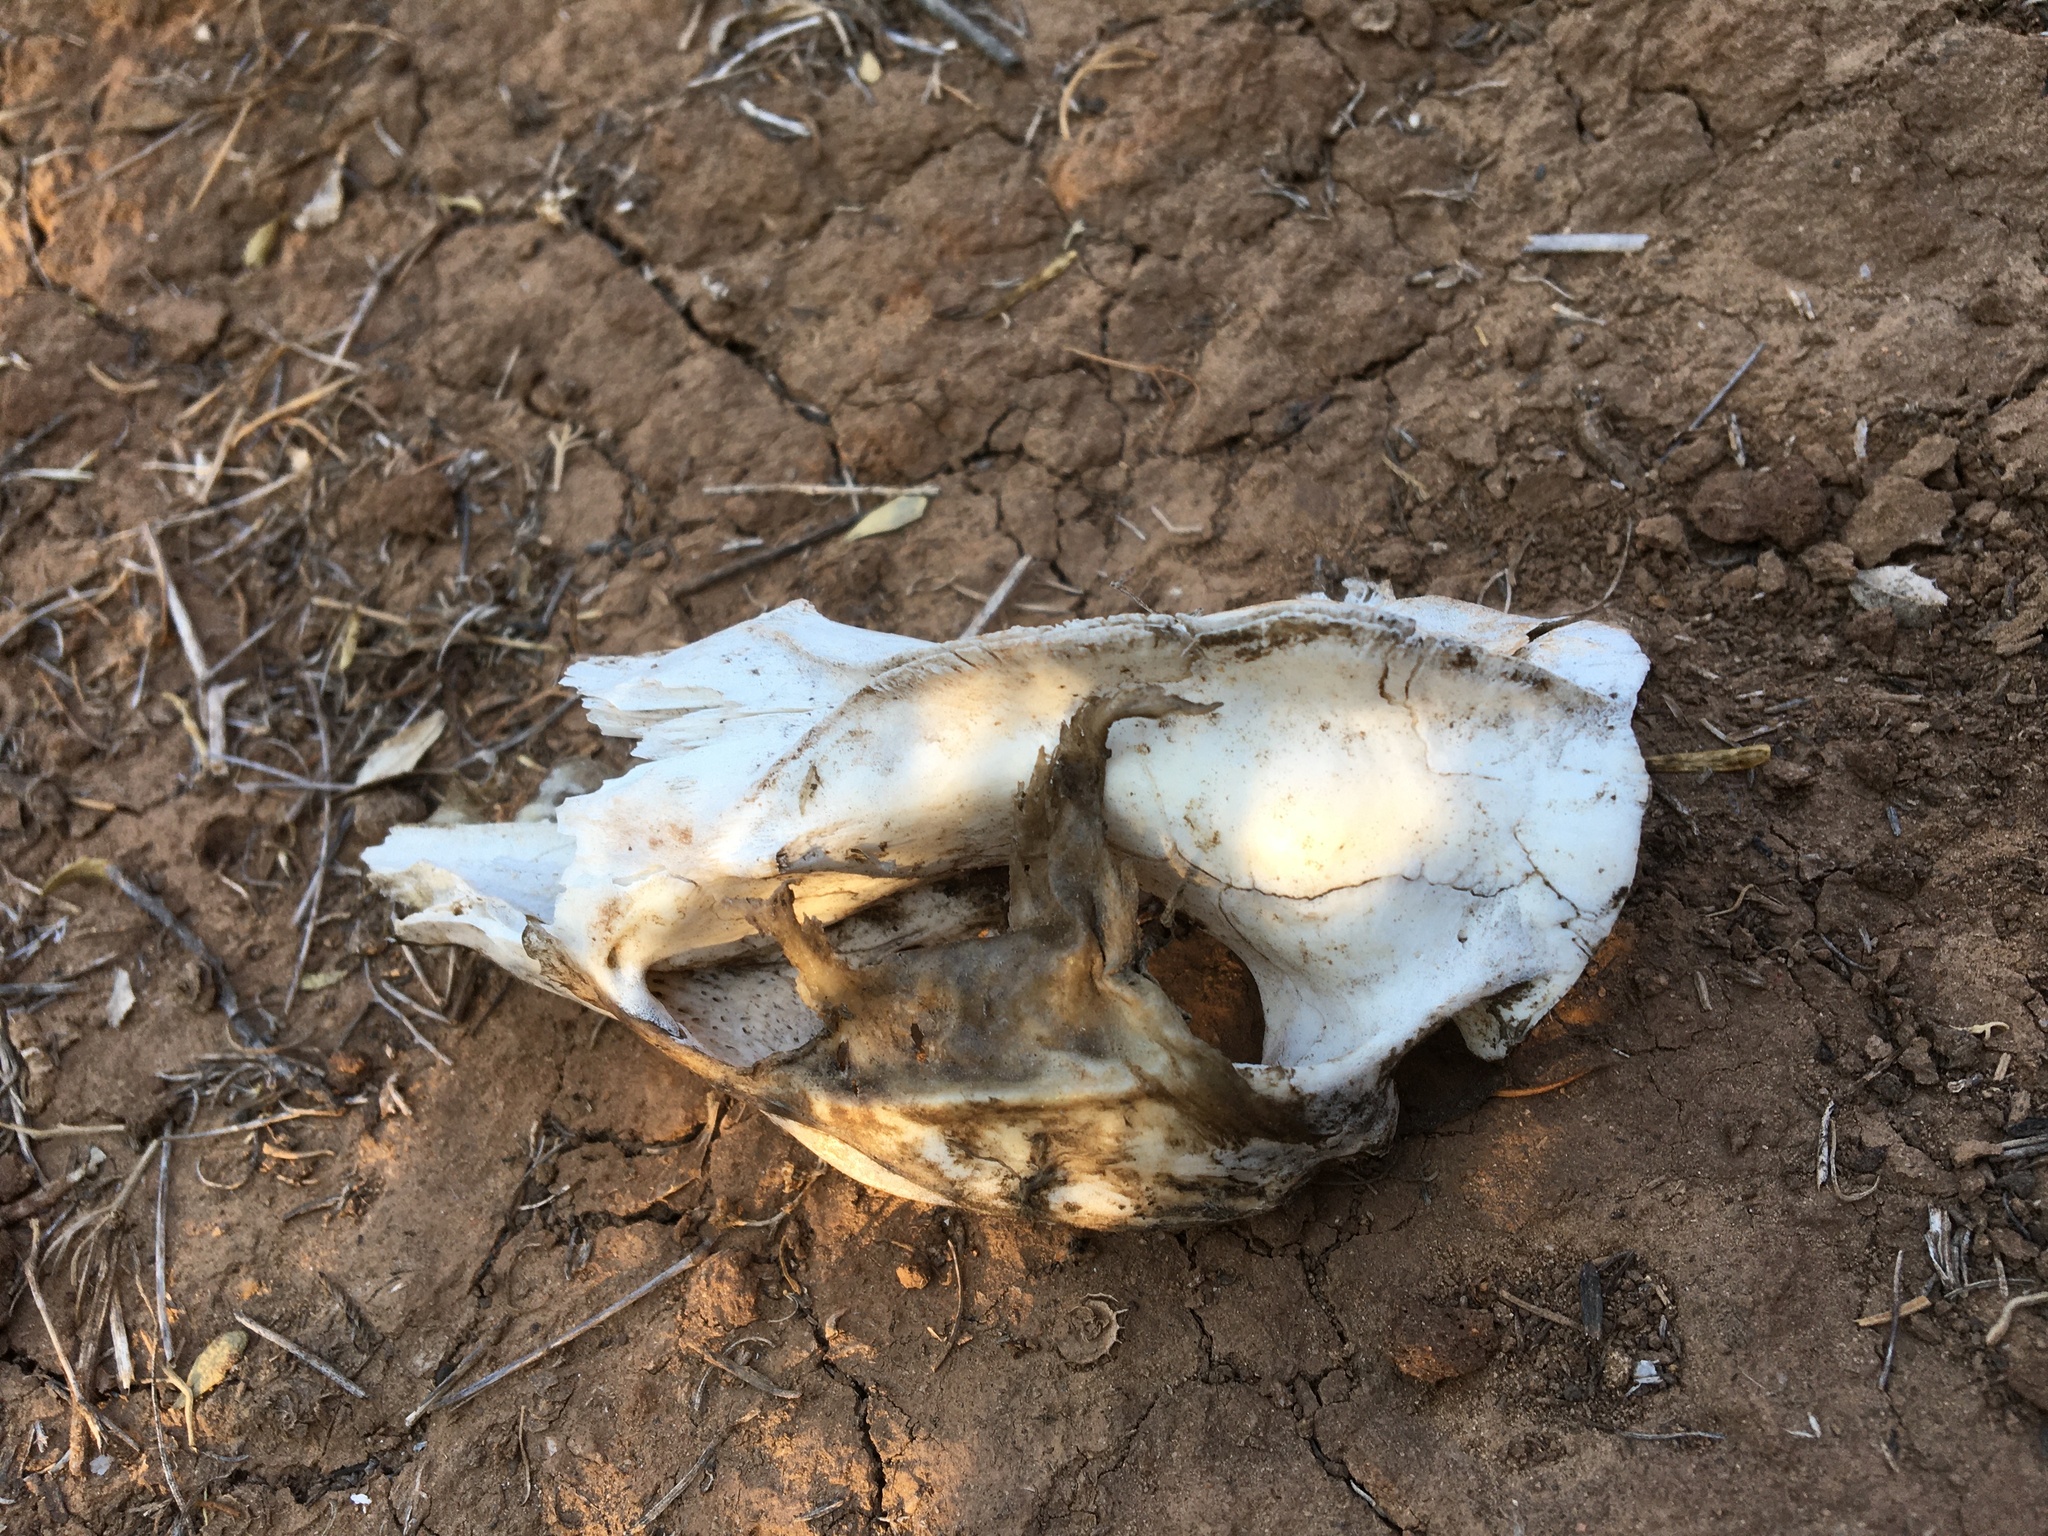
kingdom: Animalia
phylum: Chordata
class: Mammalia
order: Didelphimorphia
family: Didelphidae
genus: Didelphis
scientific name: Didelphis virginiana
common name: Virginia opossum
